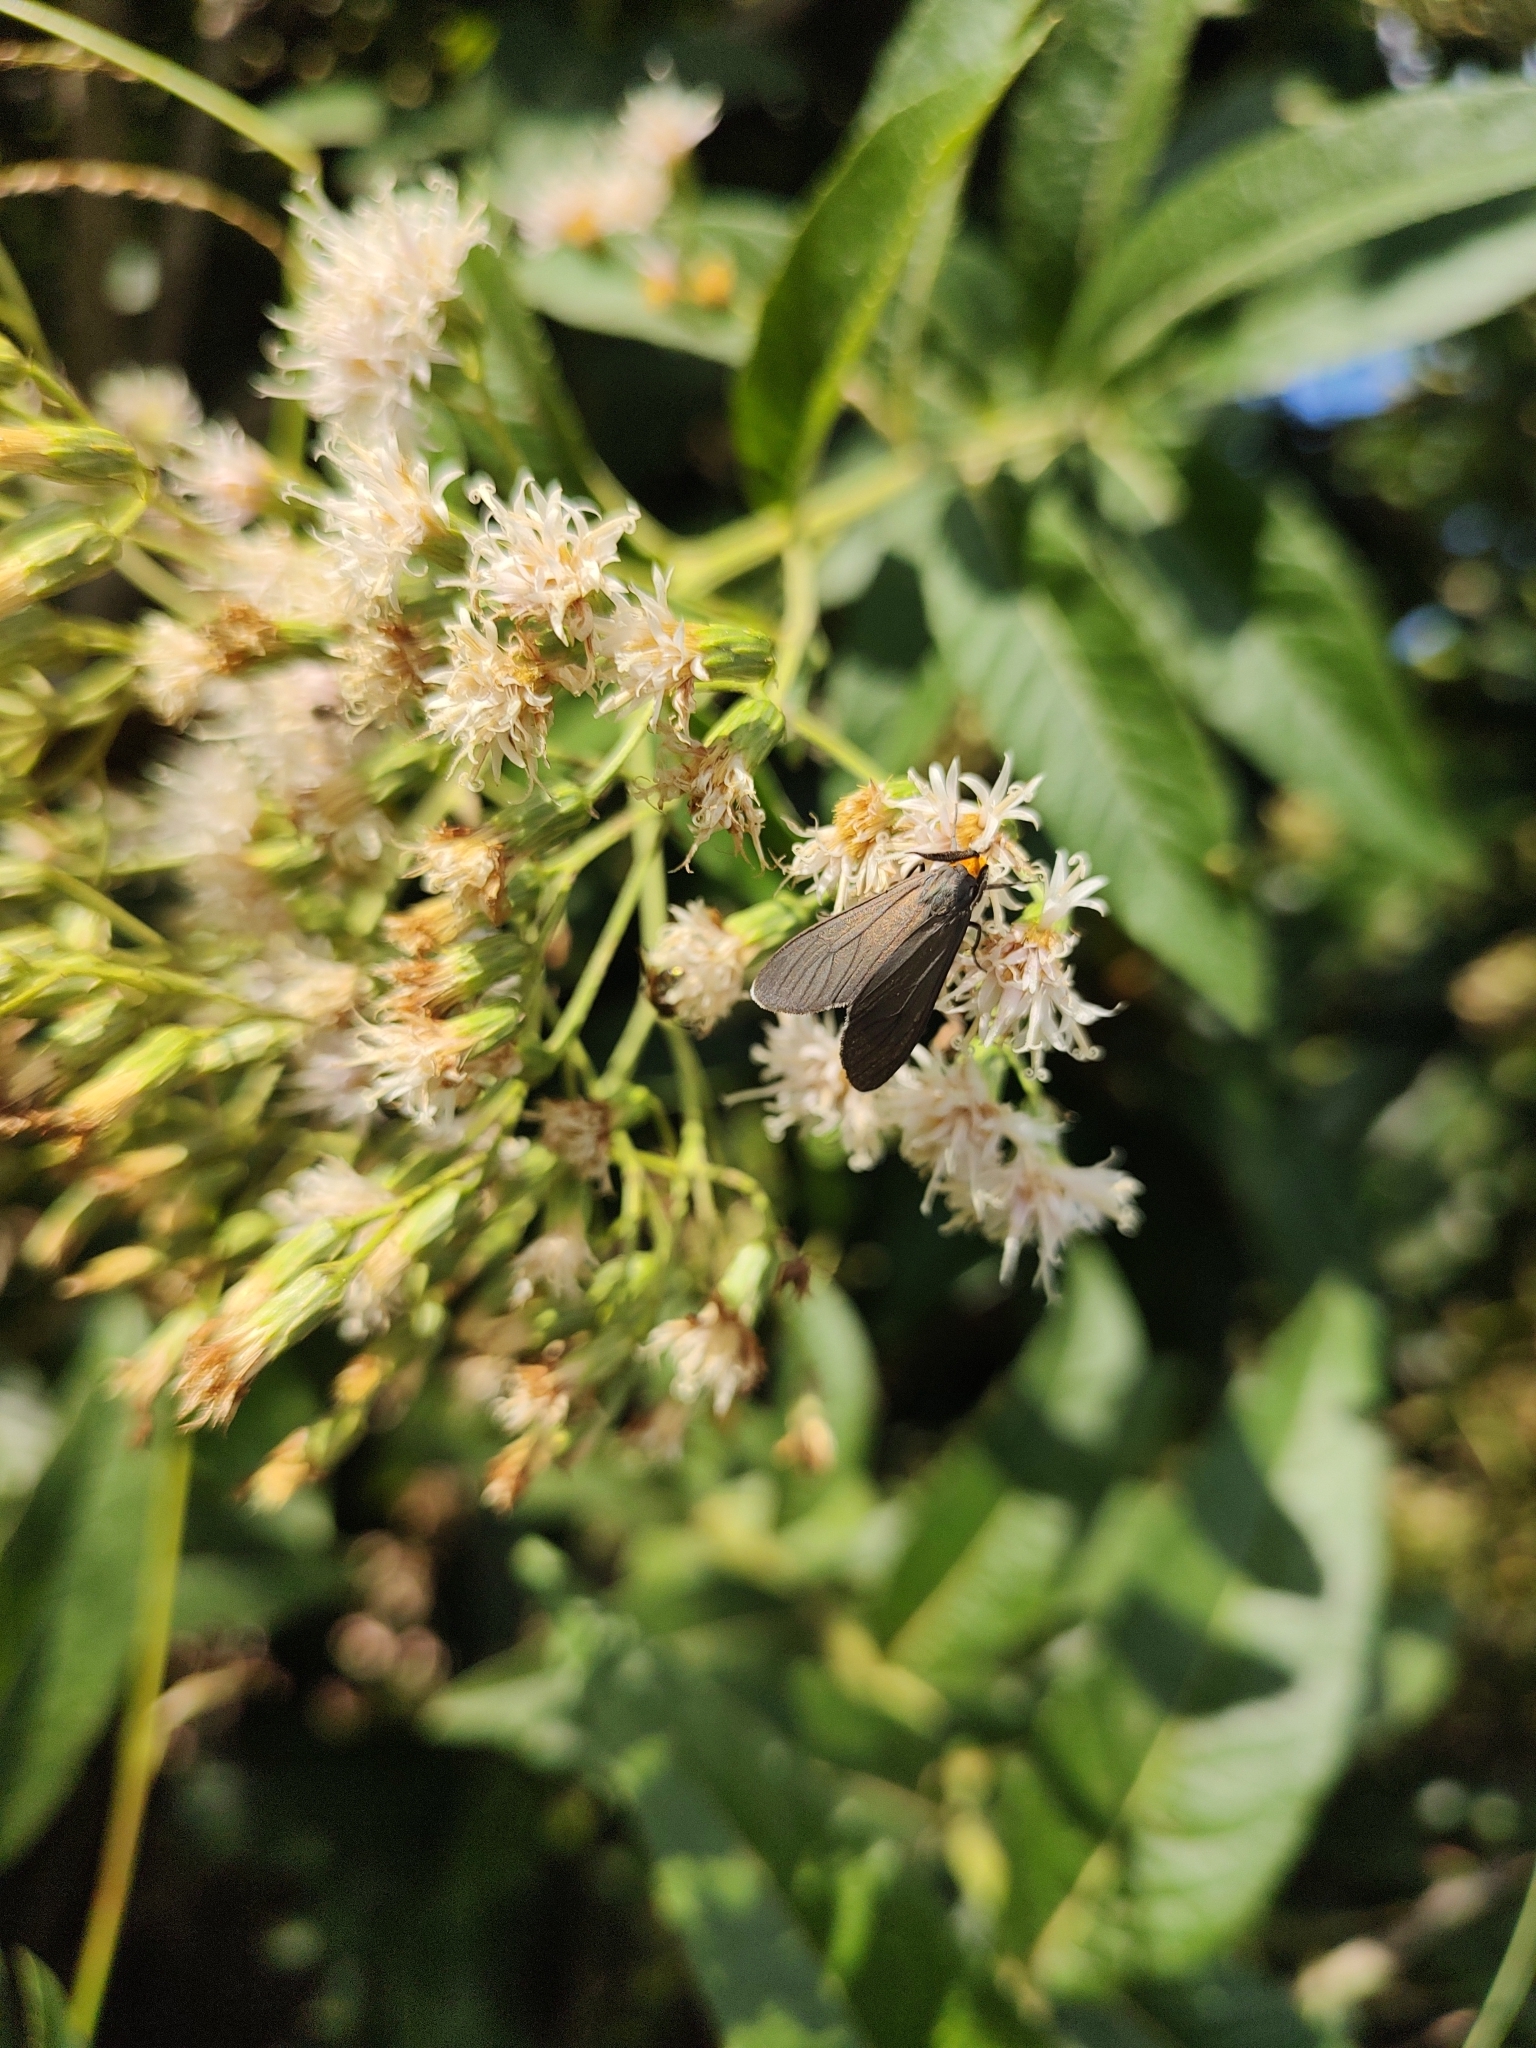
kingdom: Animalia
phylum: Arthropoda
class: Insecta
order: Lepidoptera
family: Erebidae
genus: Ctenucha
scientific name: Ctenucha rubriceps
